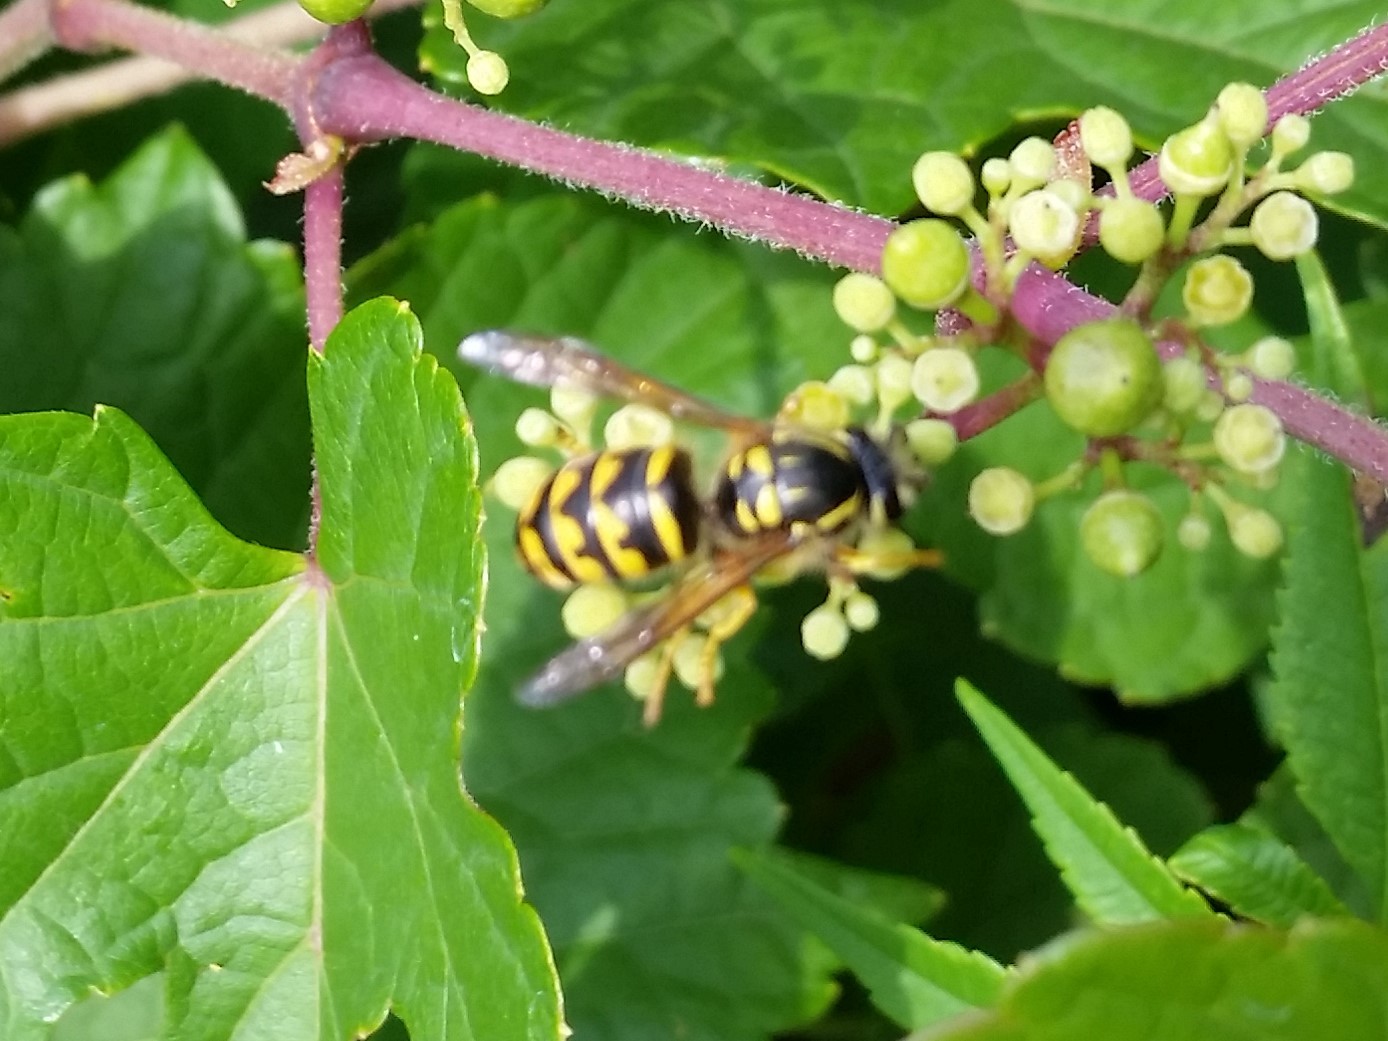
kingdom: Animalia
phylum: Arthropoda
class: Insecta
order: Hymenoptera
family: Vespidae
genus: Dolichovespula
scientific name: Dolichovespula arenaria
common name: Aerial yellowjacket
